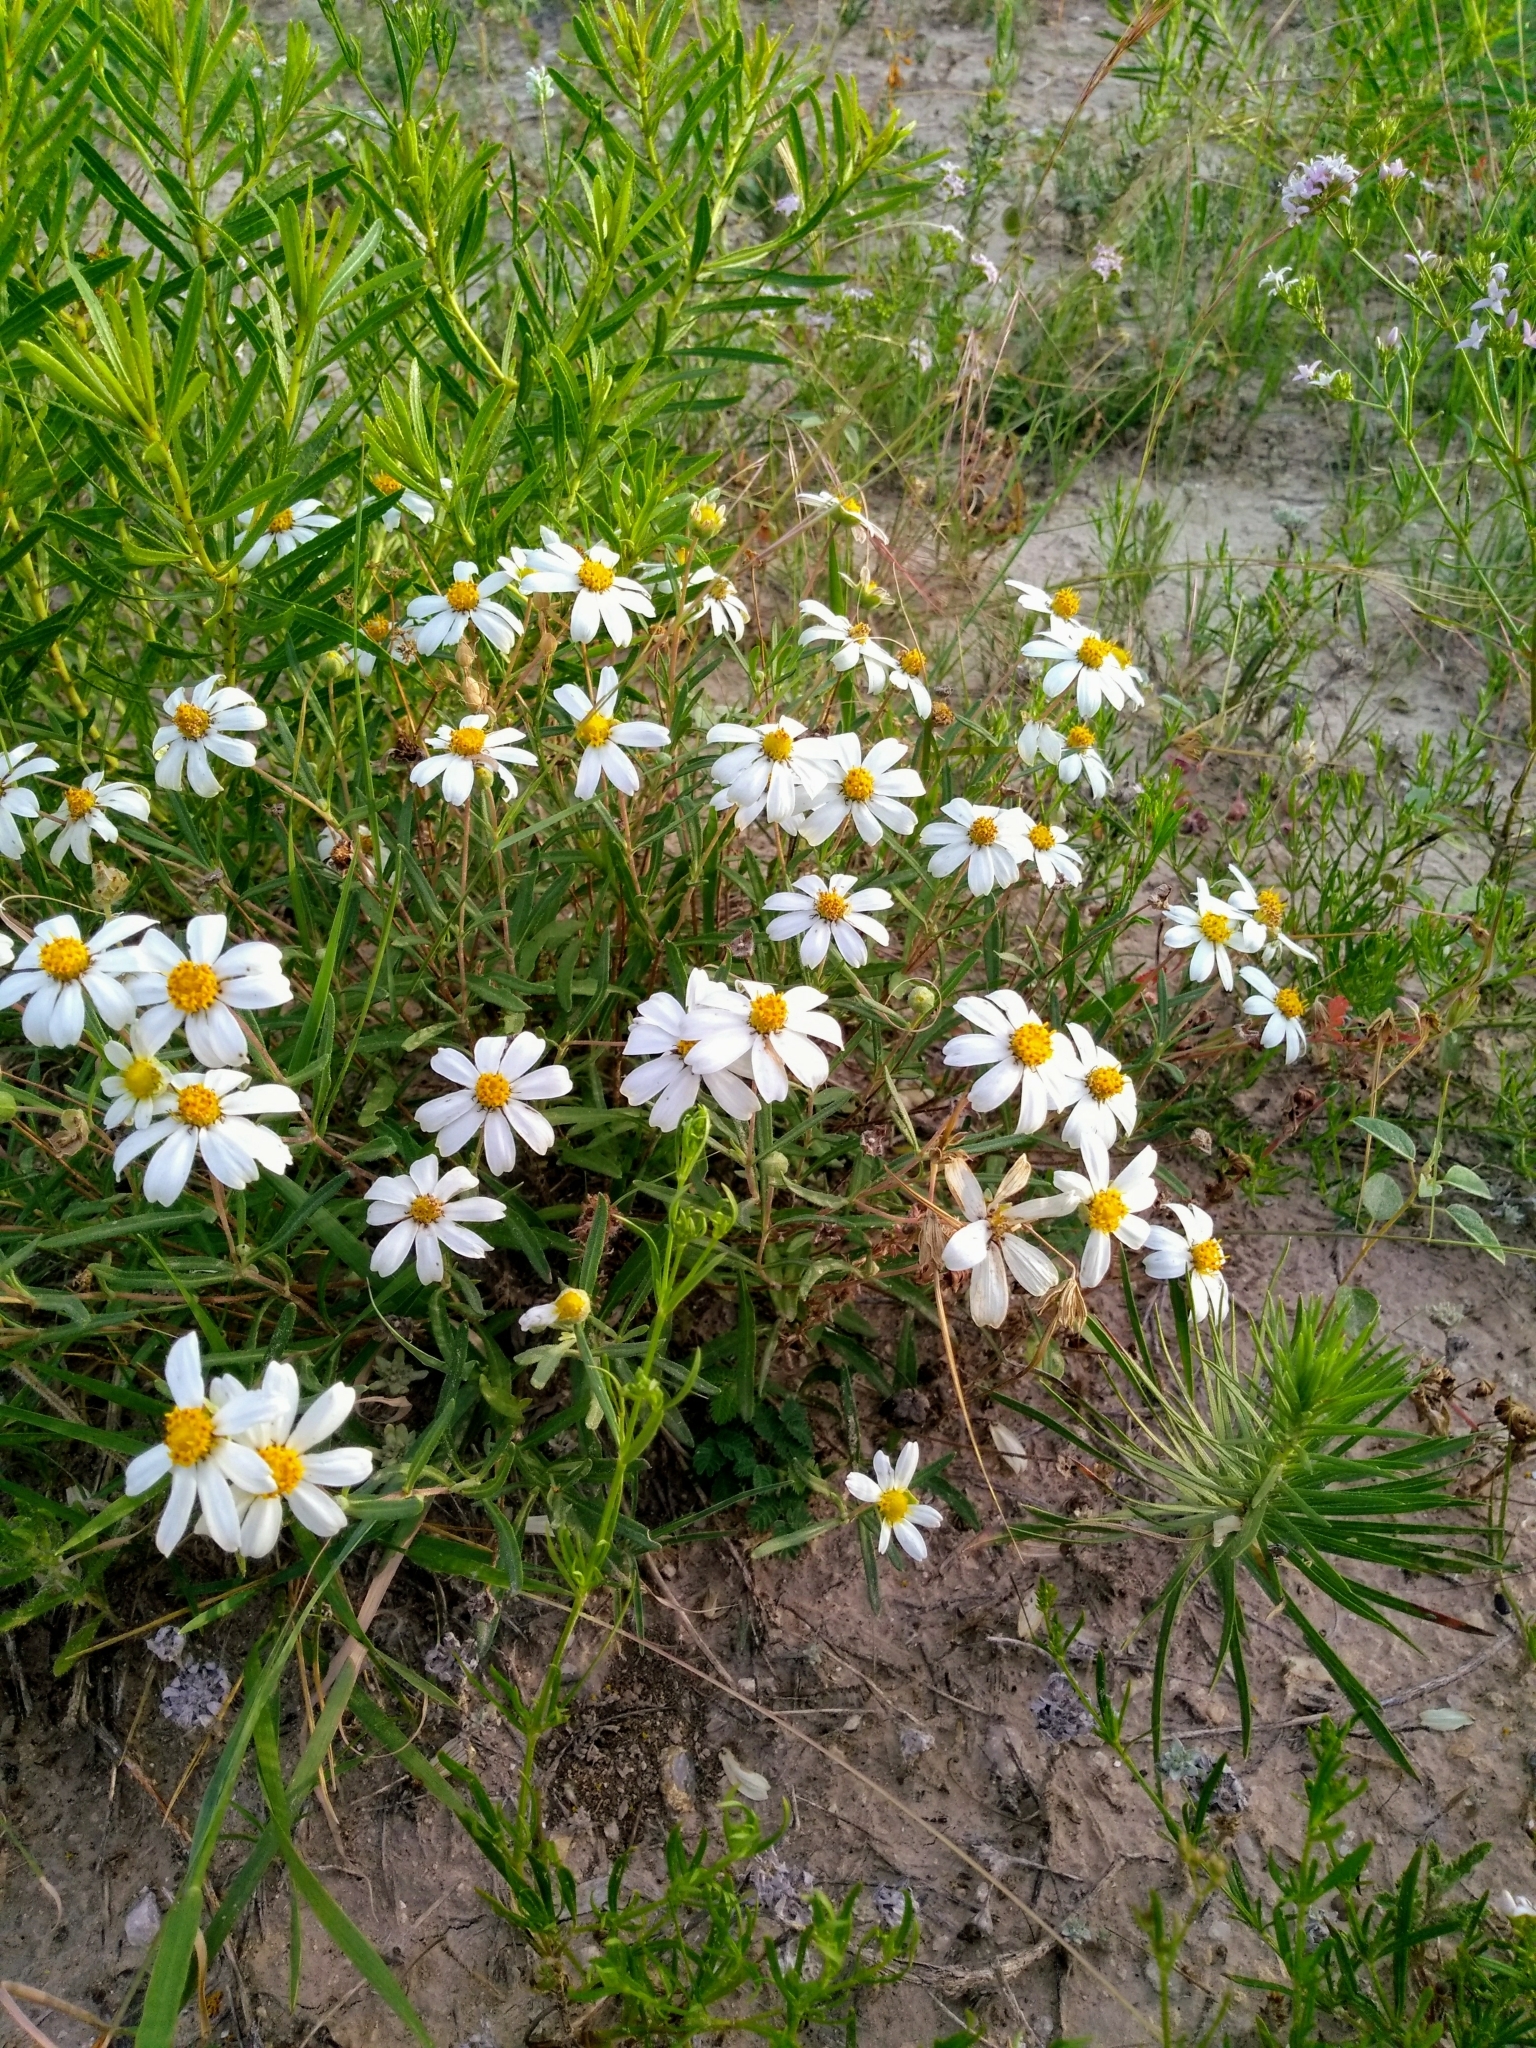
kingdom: Plantae
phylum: Tracheophyta
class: Magnoliopsida
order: Asterales
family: Asteraceae
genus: Melampodium
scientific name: Melampodium leucanthum
